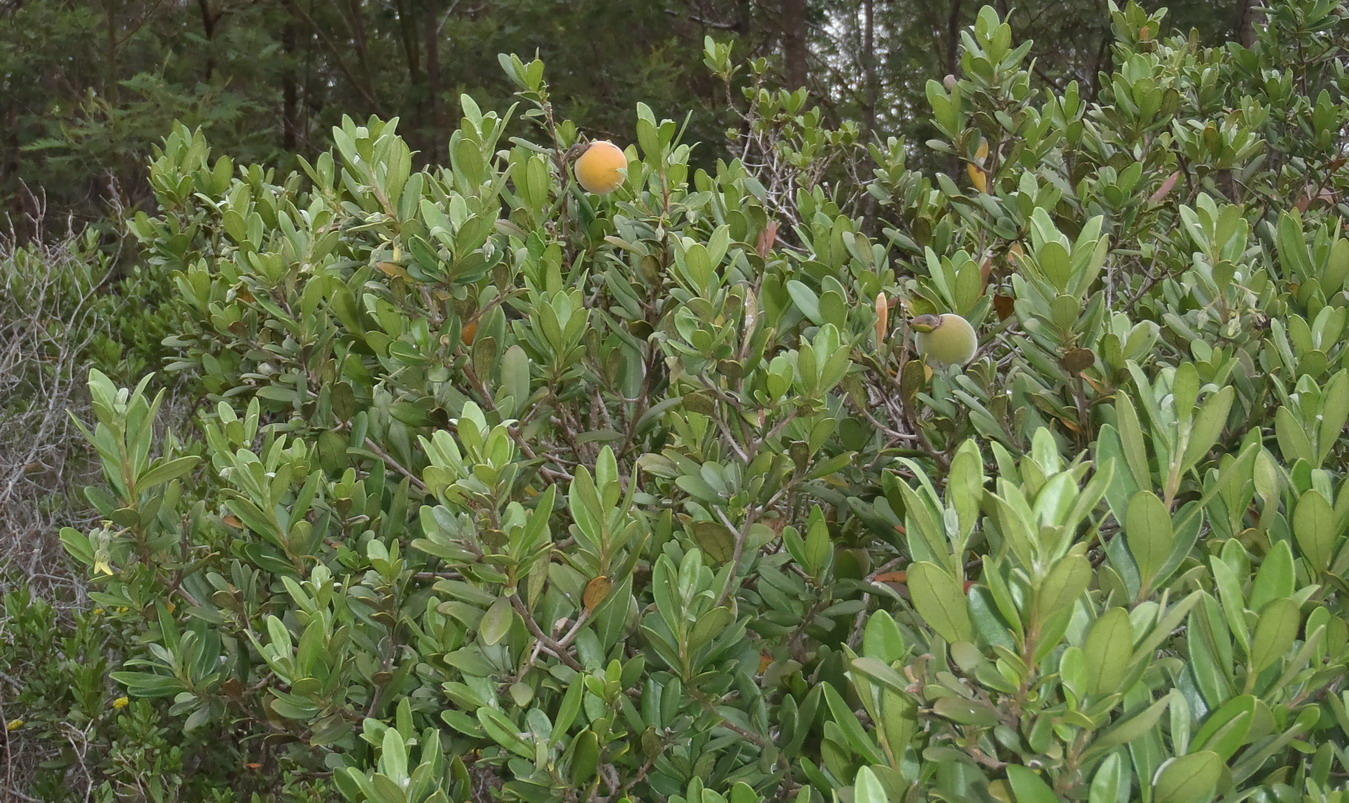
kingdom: Plantae
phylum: Tracheophyta
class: Magnoliopsida
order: Ericales
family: Ebenaceae
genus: Diospyros
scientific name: Diospyros dichrophylla
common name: Common star-apple
